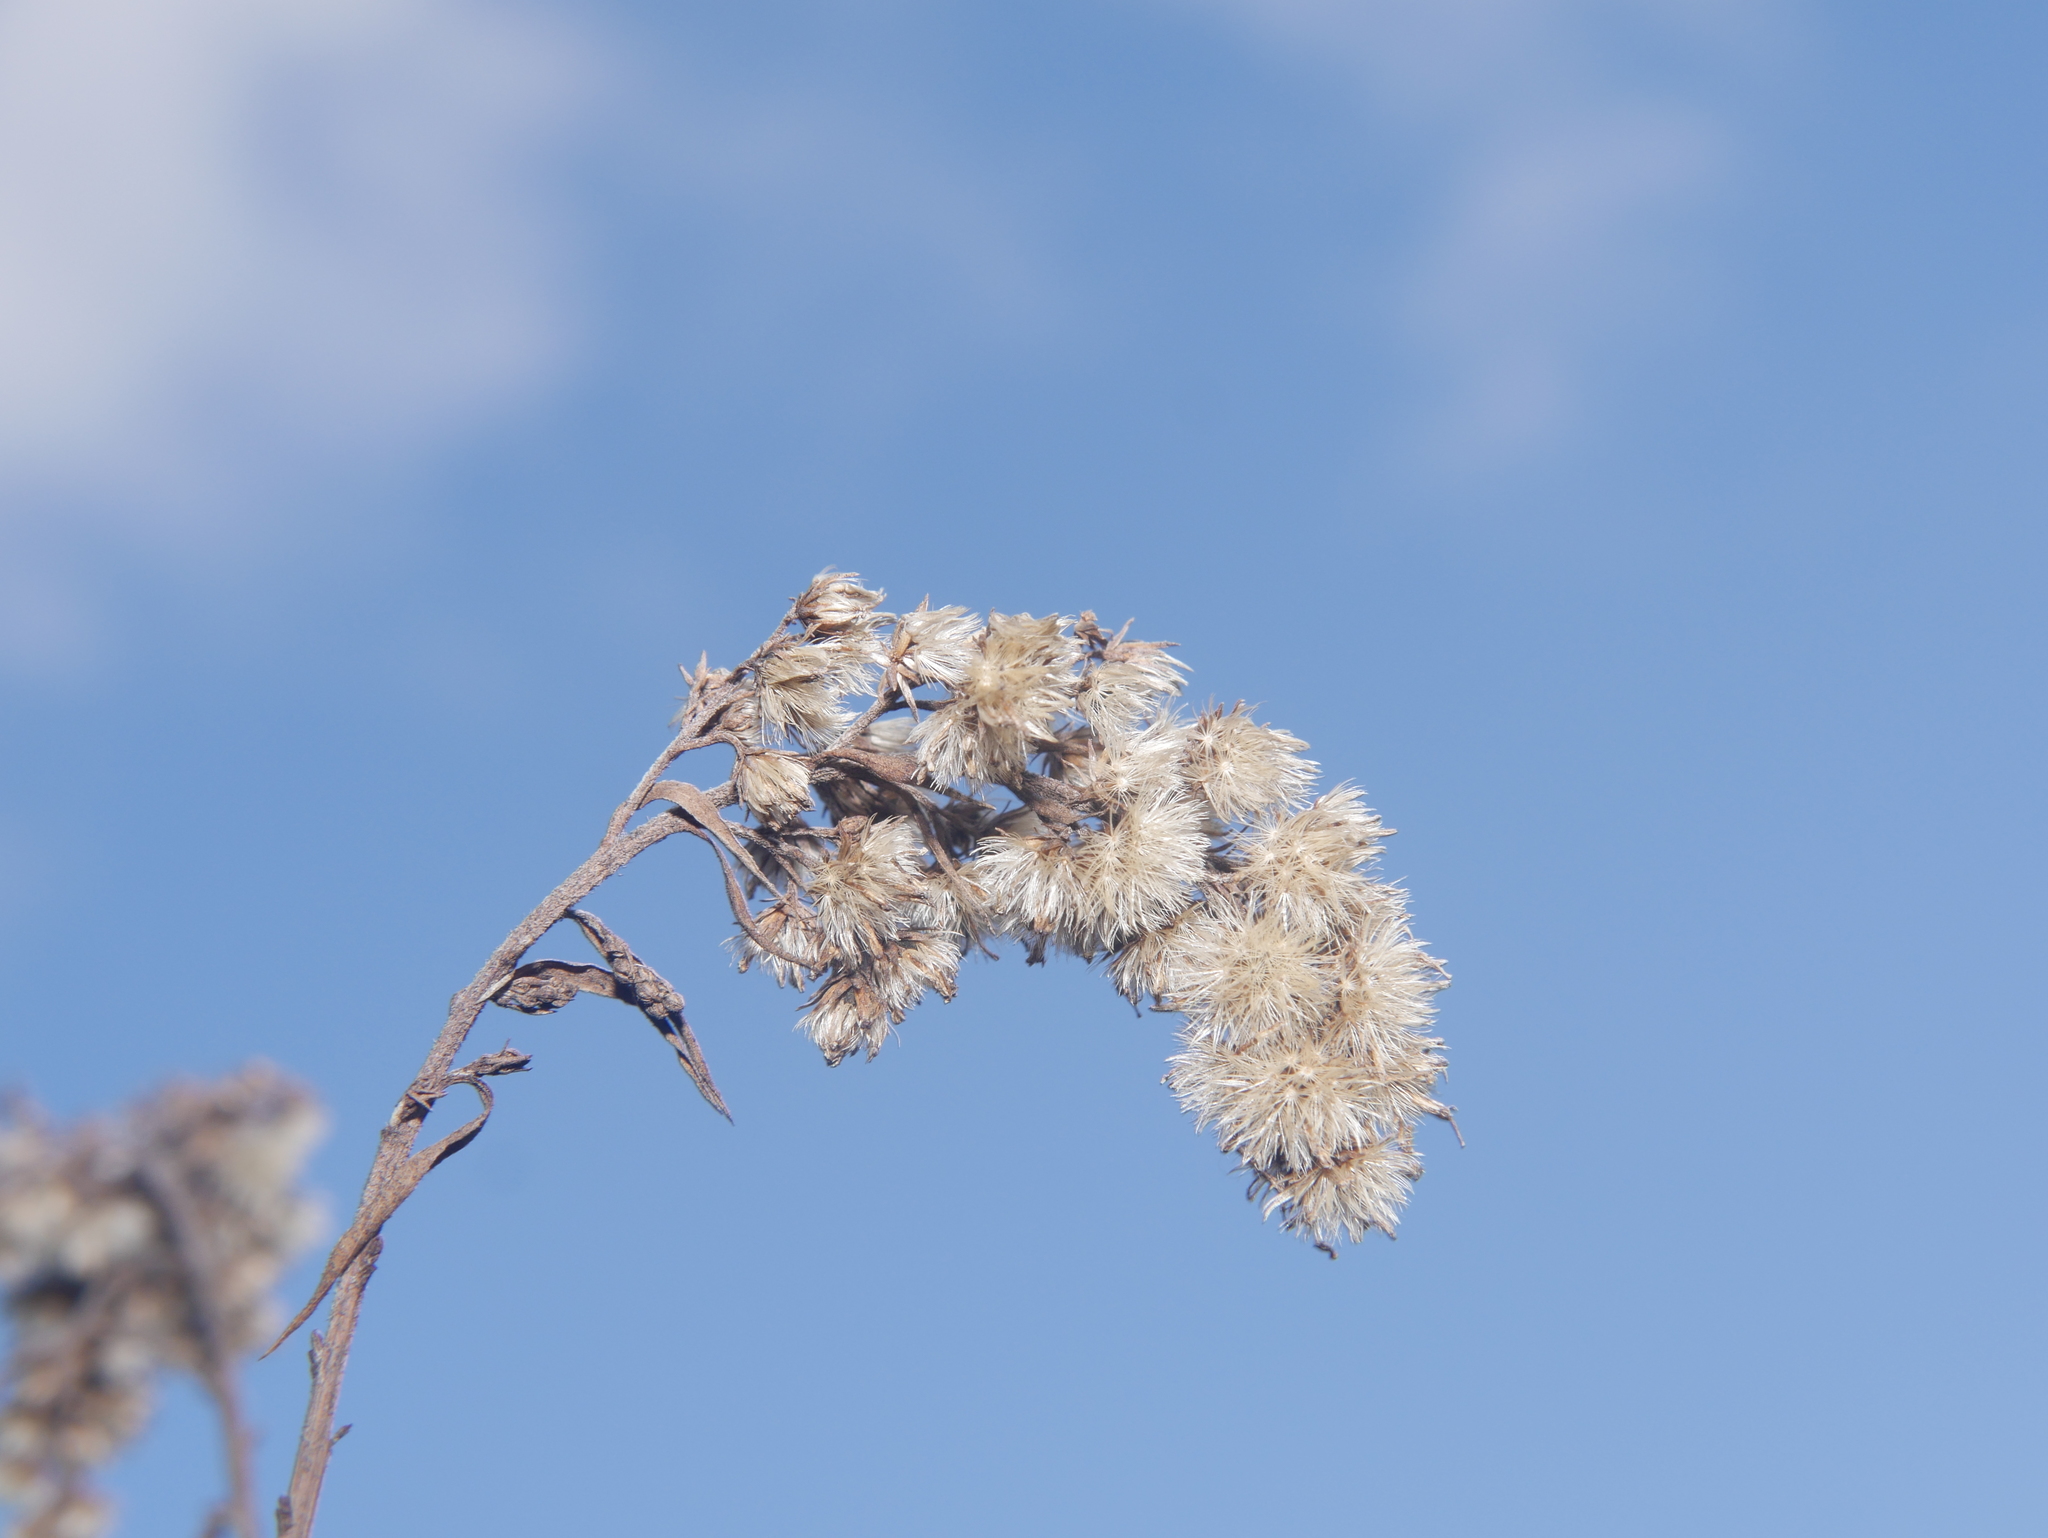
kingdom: Plantae
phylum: Tracheophyta
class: Magnoliopsida
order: Asterales
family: Asteraceae
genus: Solidago
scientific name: Solidago canadensis
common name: Canada goldenrod
